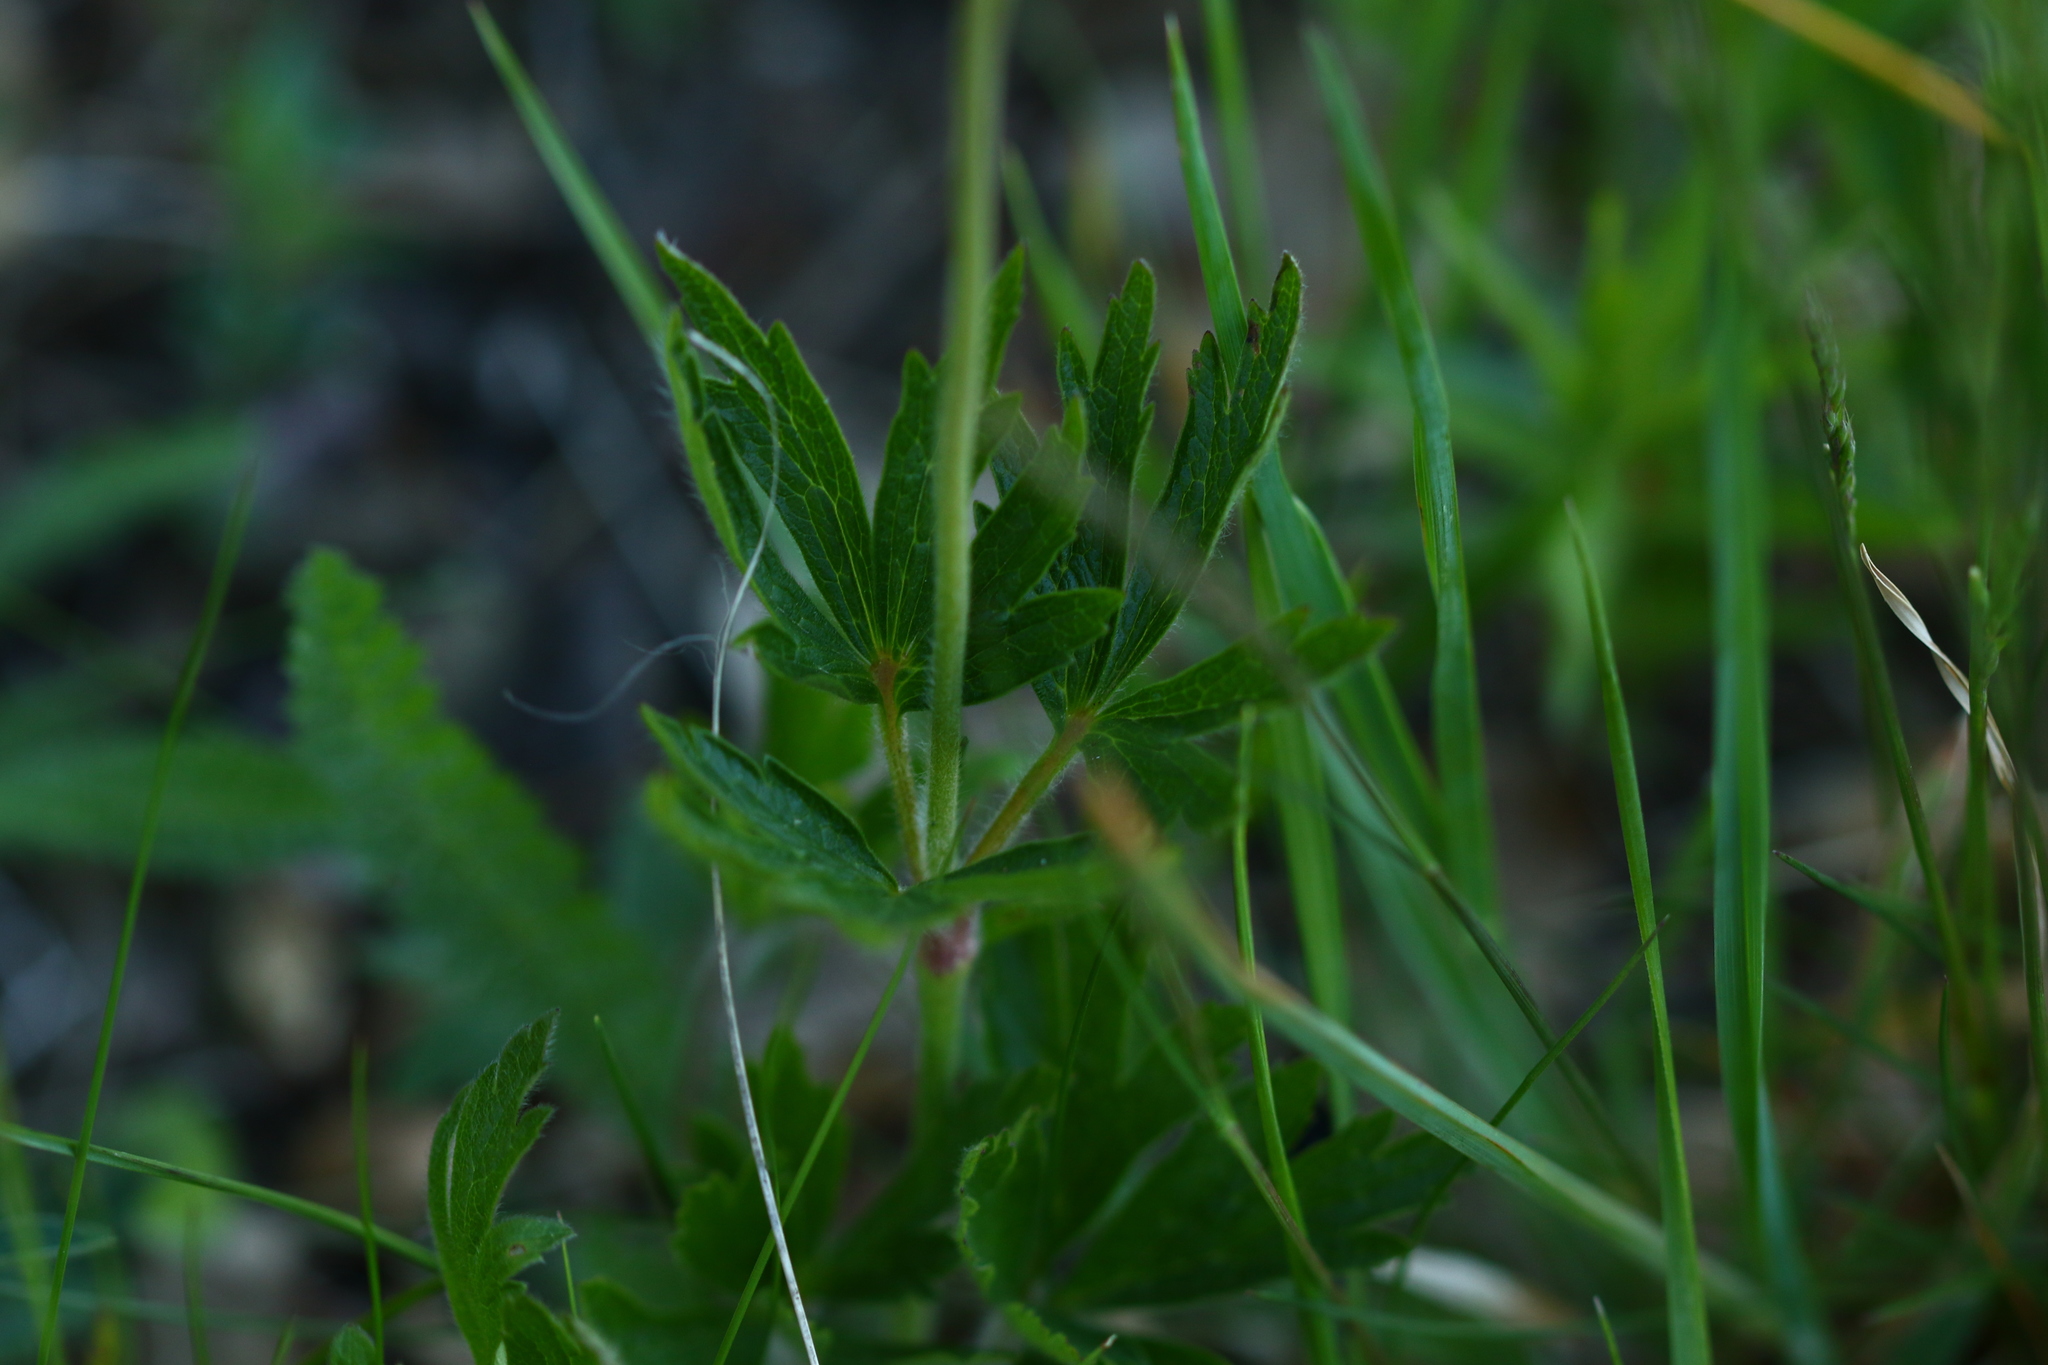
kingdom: Plantae
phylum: Tracheophyta
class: Magnoliopsida
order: Ranunculales
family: Ranunculaceae
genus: Anemone
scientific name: Anemone sylvestris
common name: Snowdrop anemone
